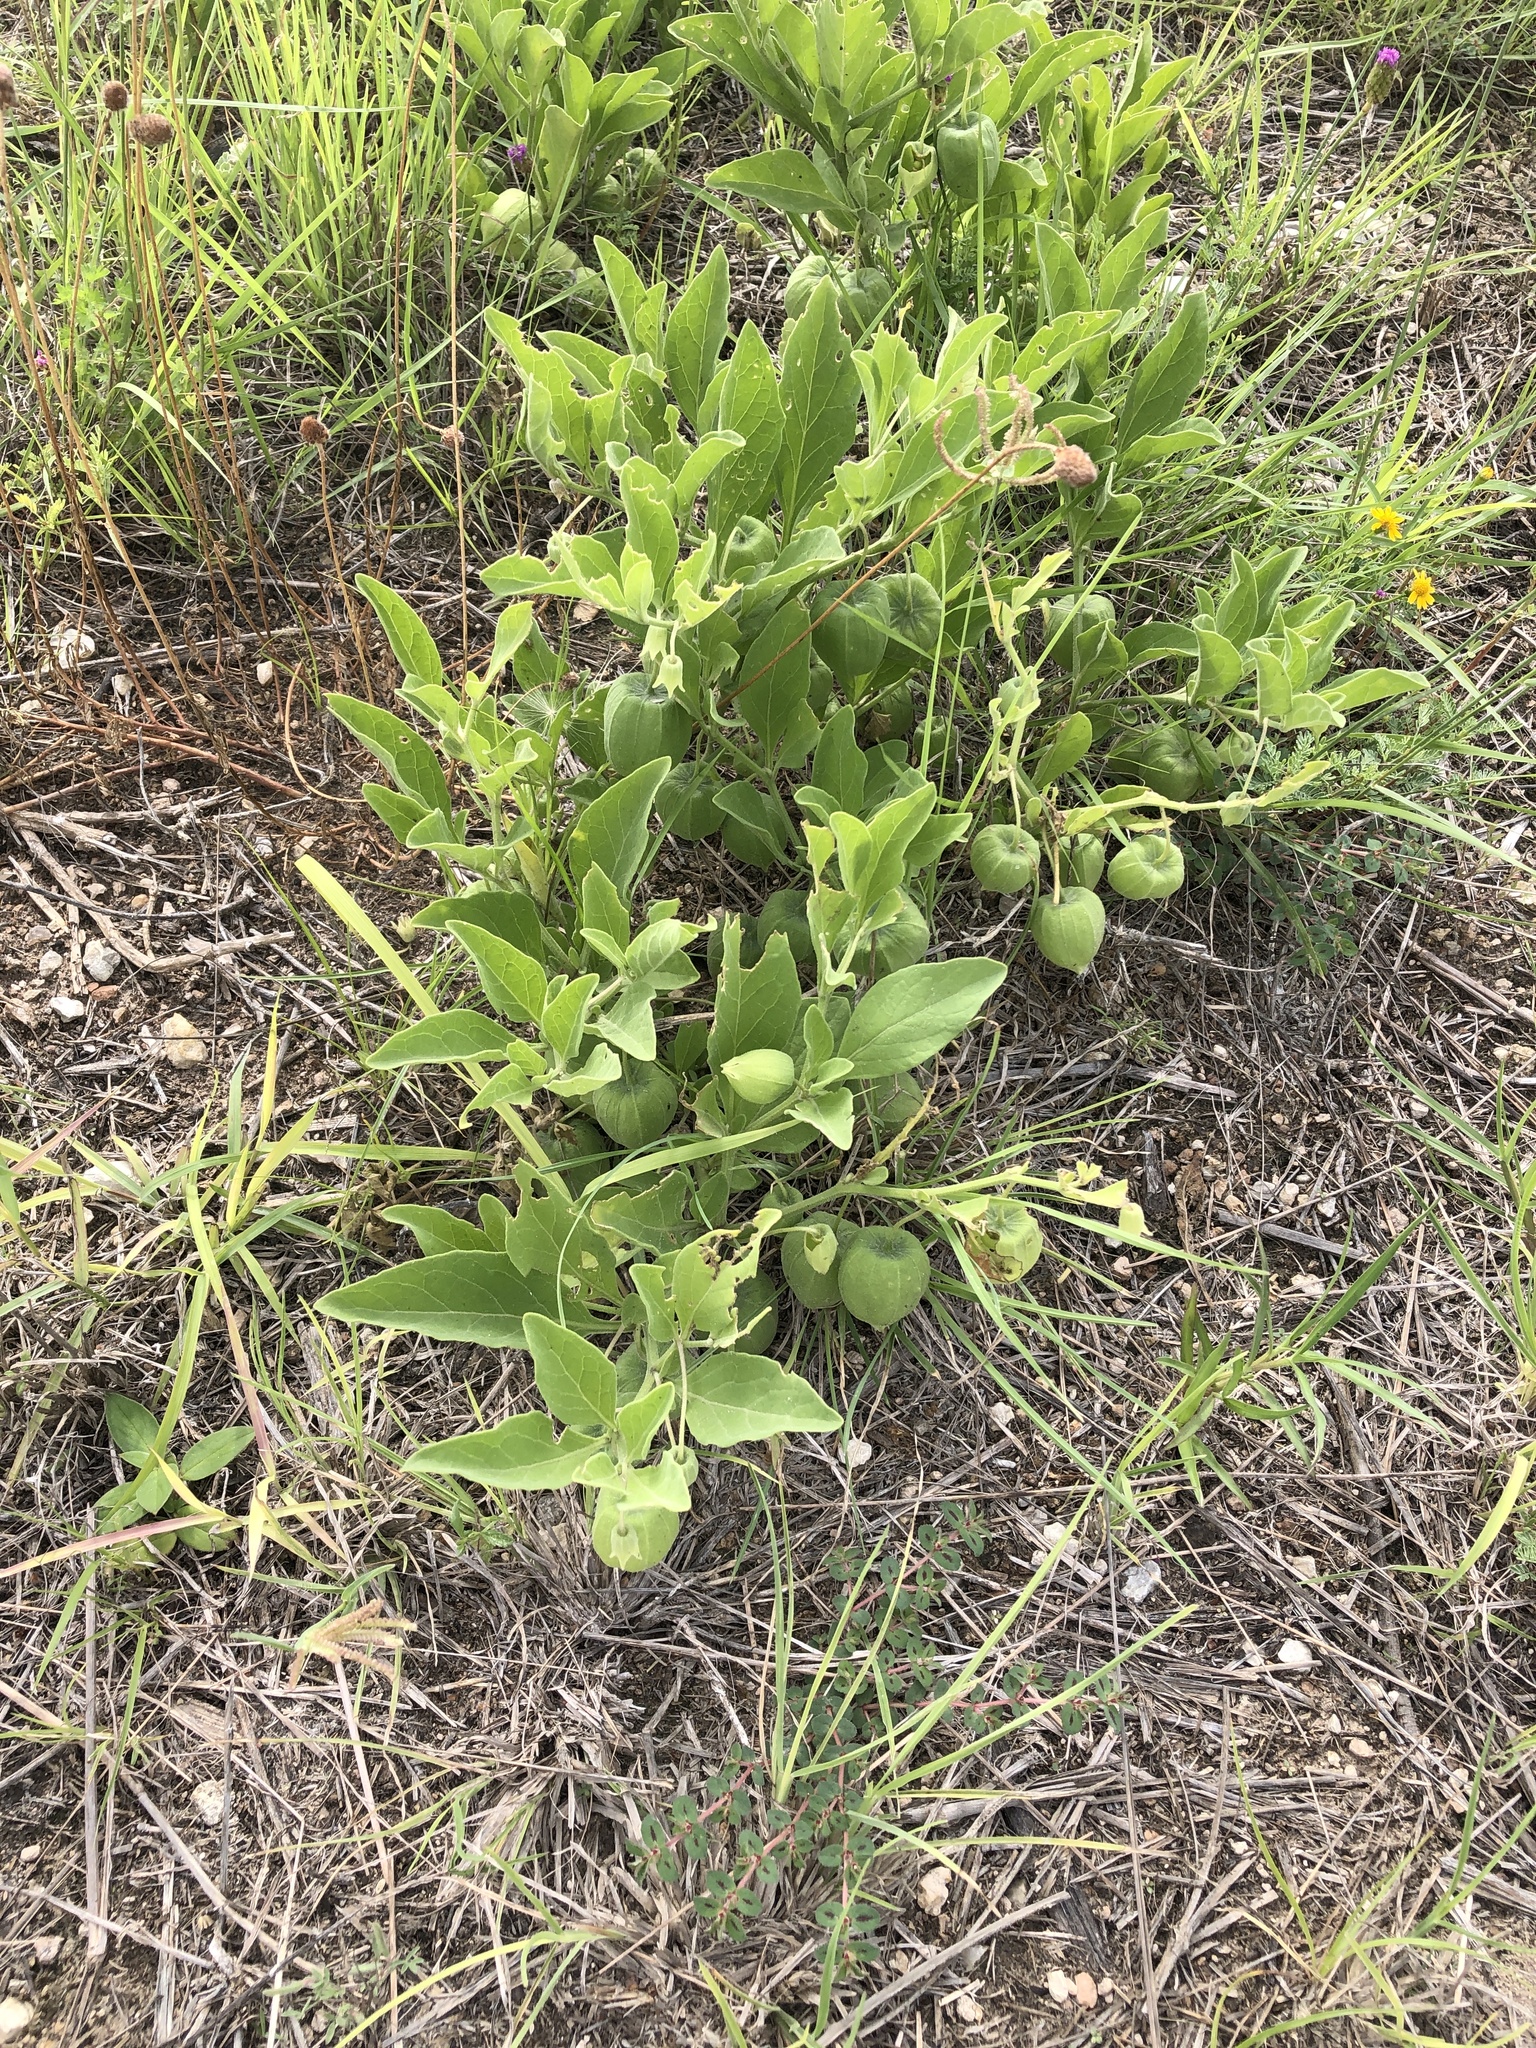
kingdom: Plantae
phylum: Tracheophyta
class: Magnoliopsida
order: Solanales
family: Solanaceae
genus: Physalis
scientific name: Physalis cinerascens
